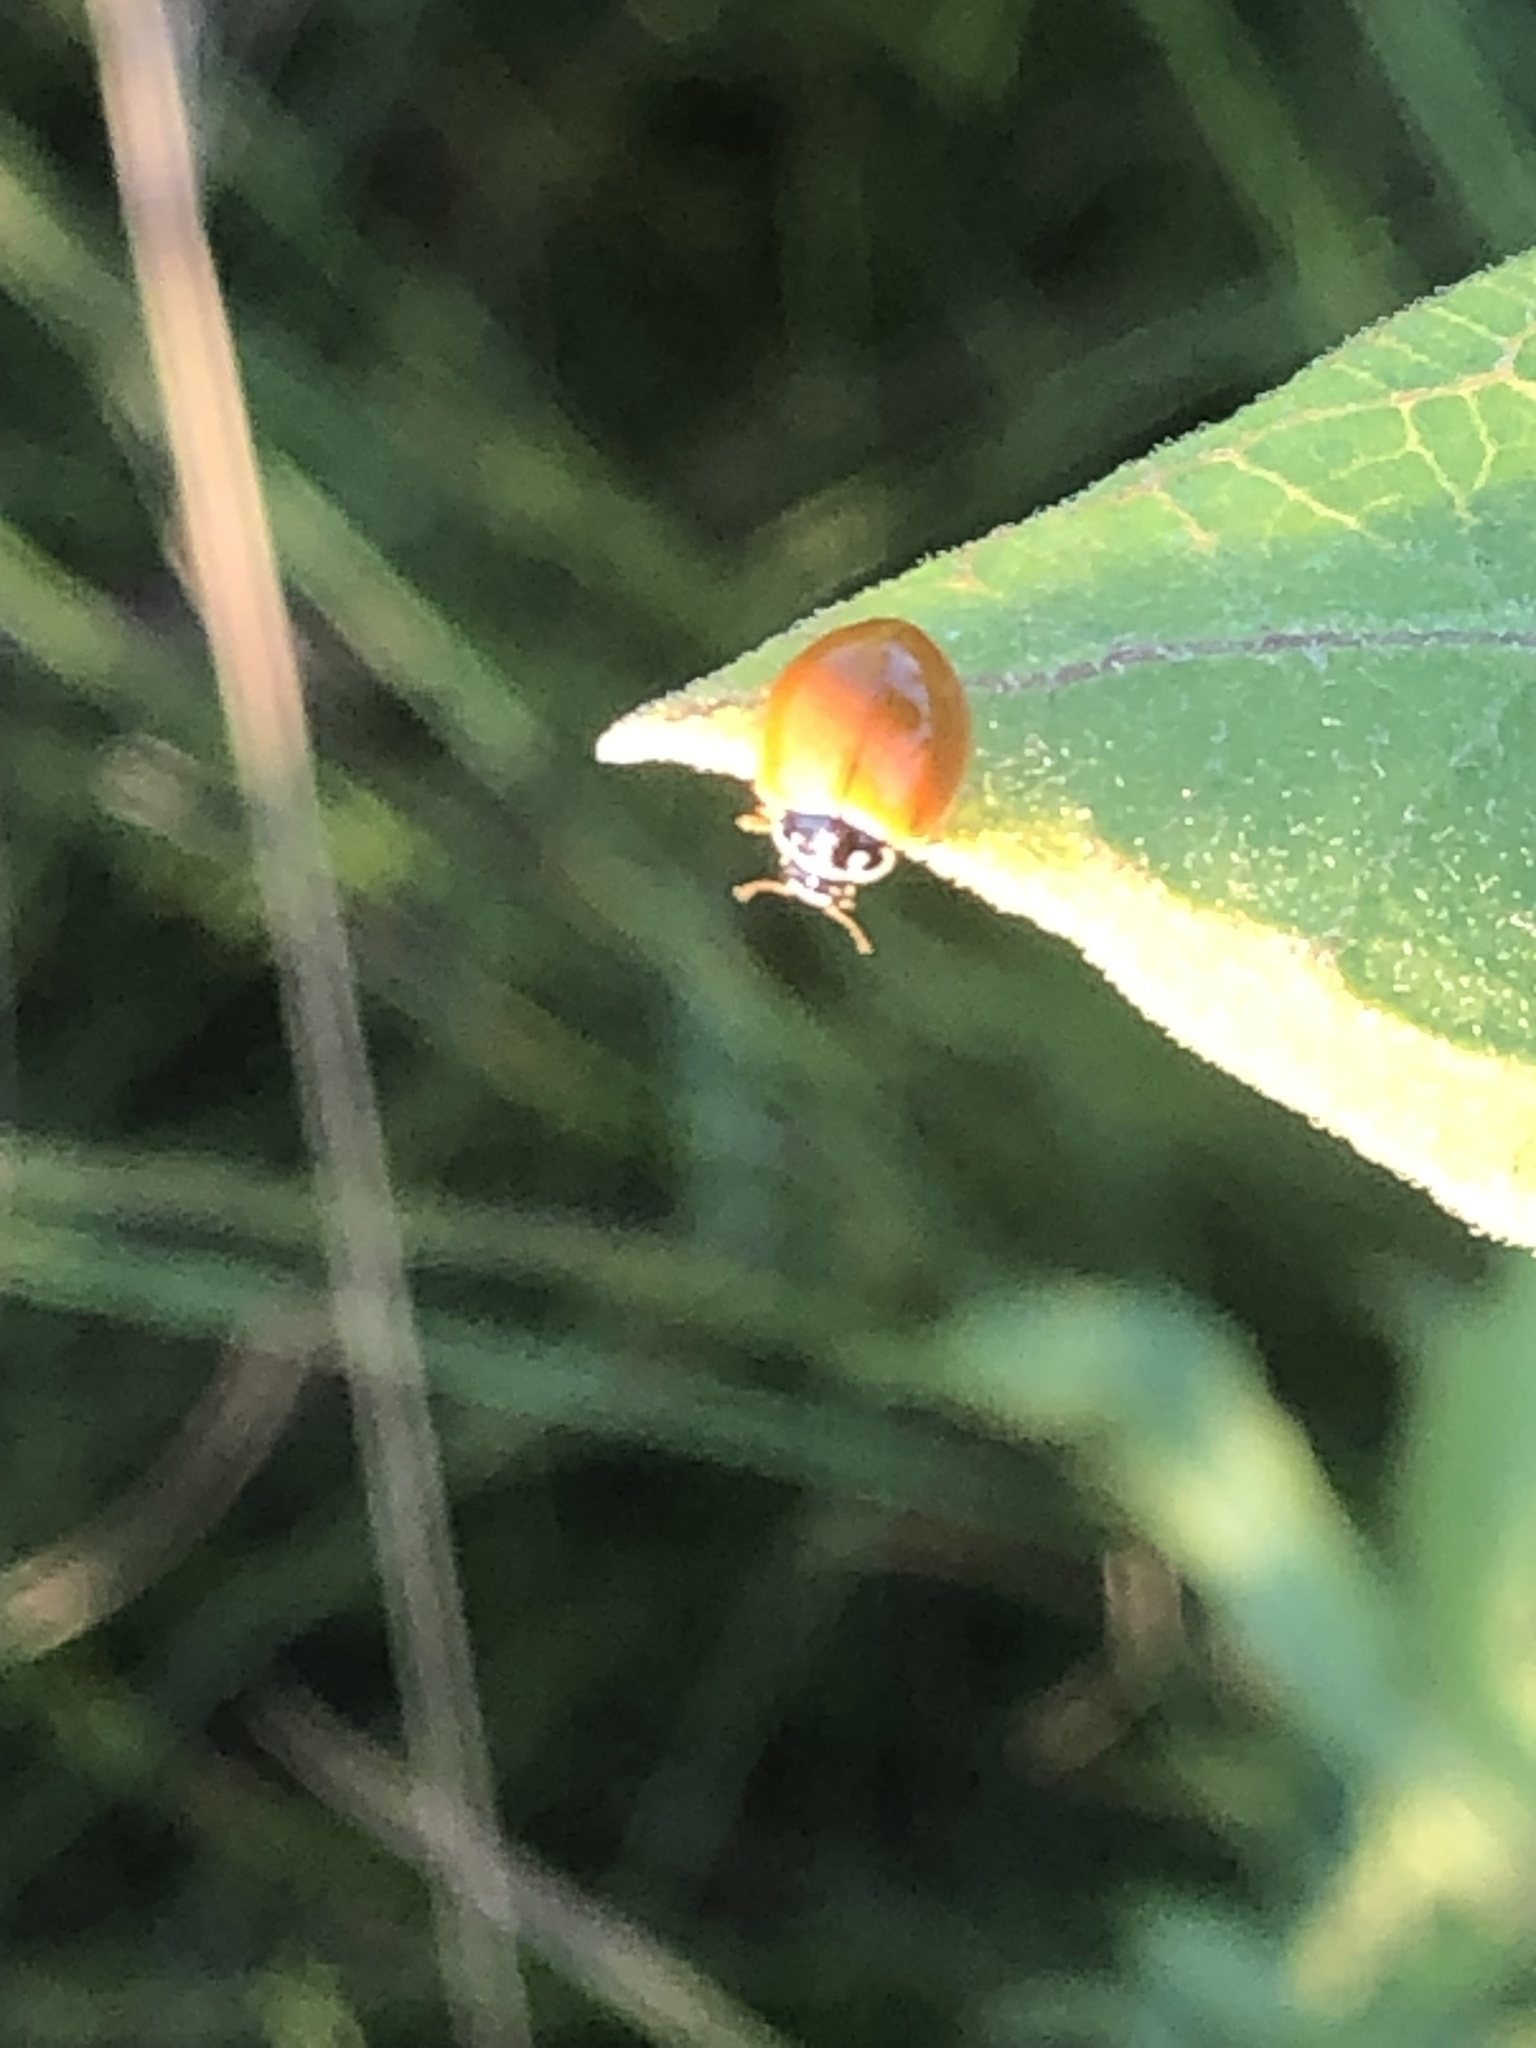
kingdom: Animalia
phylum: Arthropoda
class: Insecta
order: Coleoptera
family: Coccinellidae
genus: Cycloneda
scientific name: Cycloneda munda
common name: Polished lady beetle
